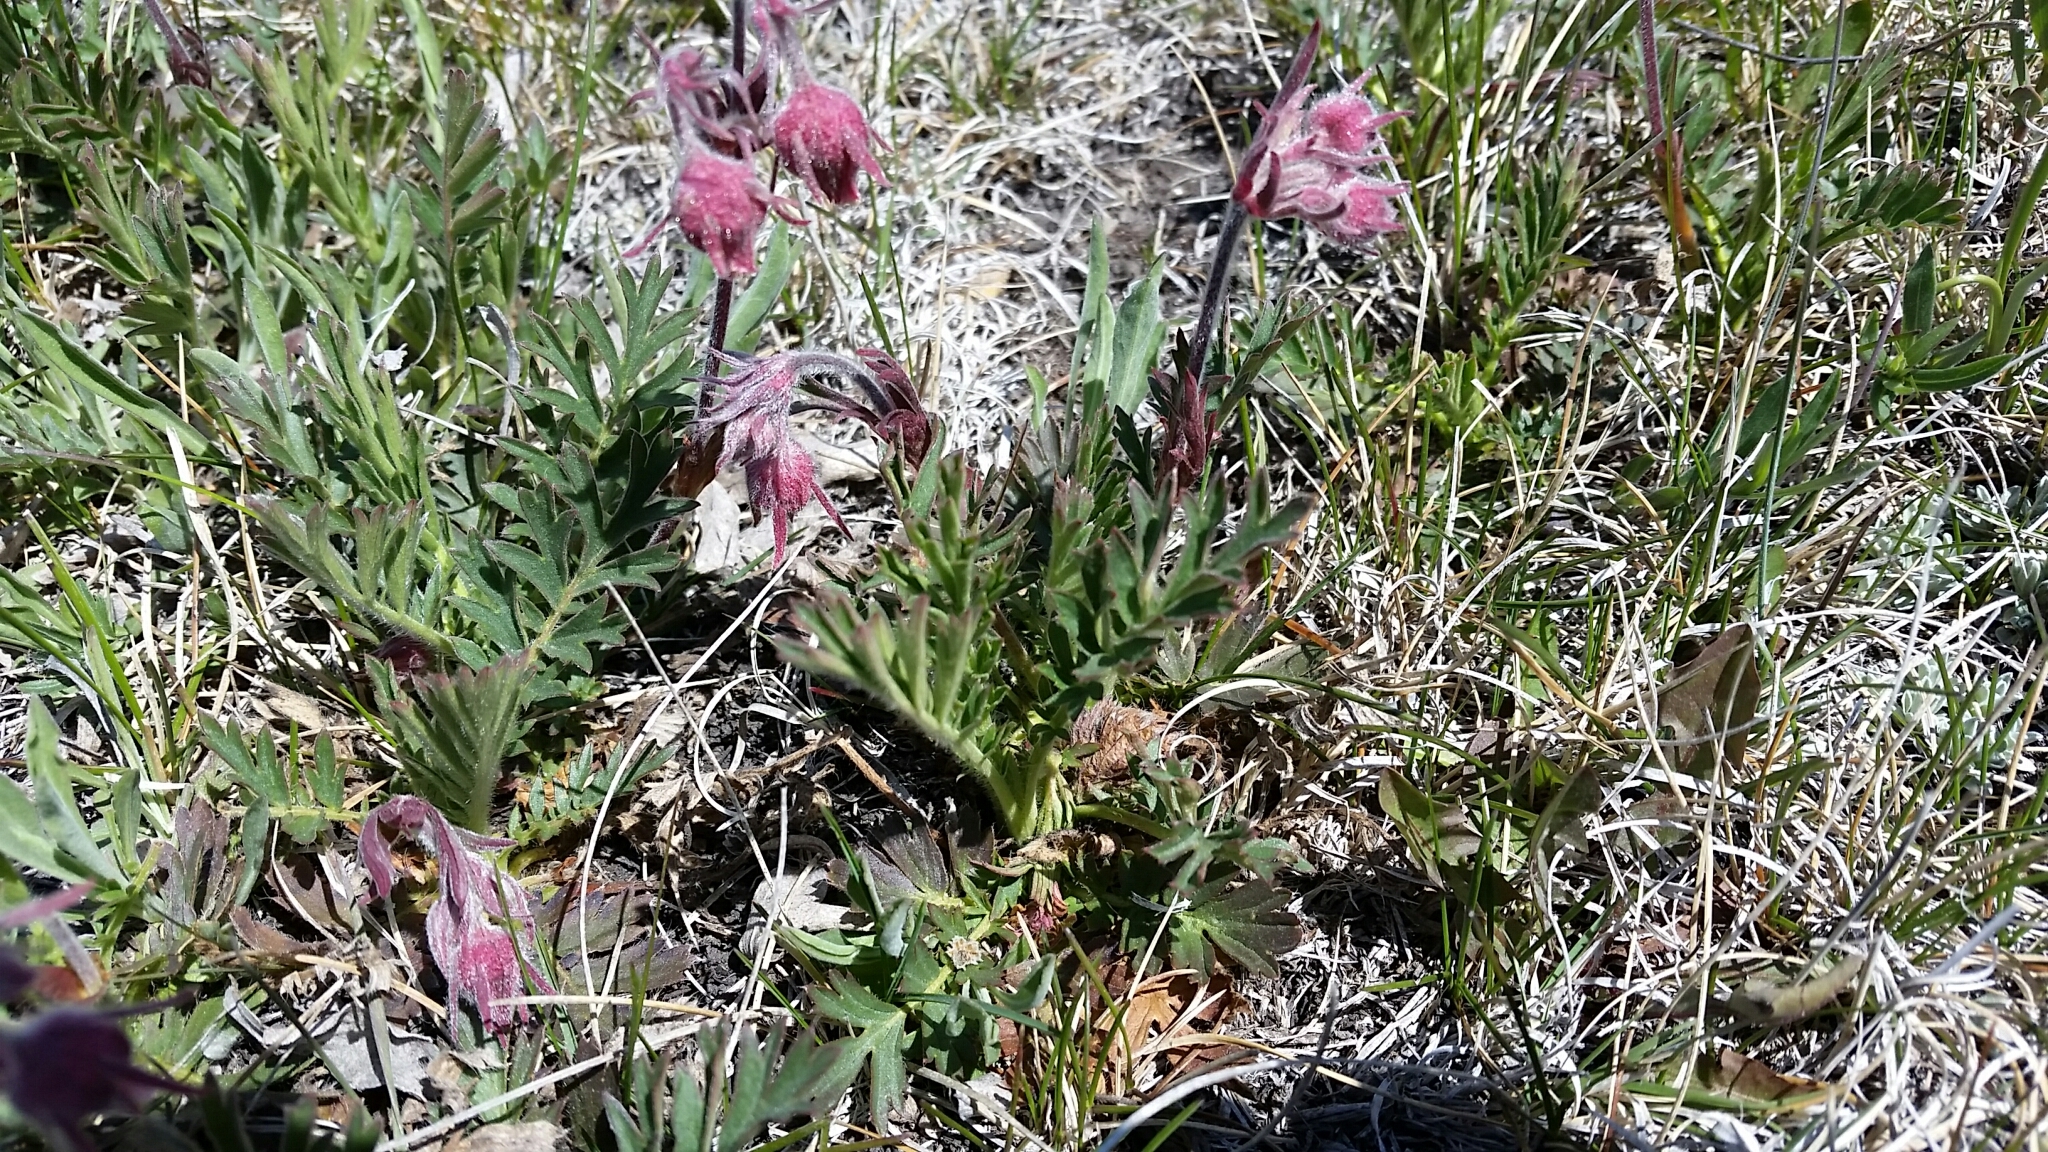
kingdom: Plantae
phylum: Tracheophyta
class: Magnoliopsida
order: Rosales
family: Rosaceae
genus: Geum
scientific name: Geum triflorum
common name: Old man's whiskers
